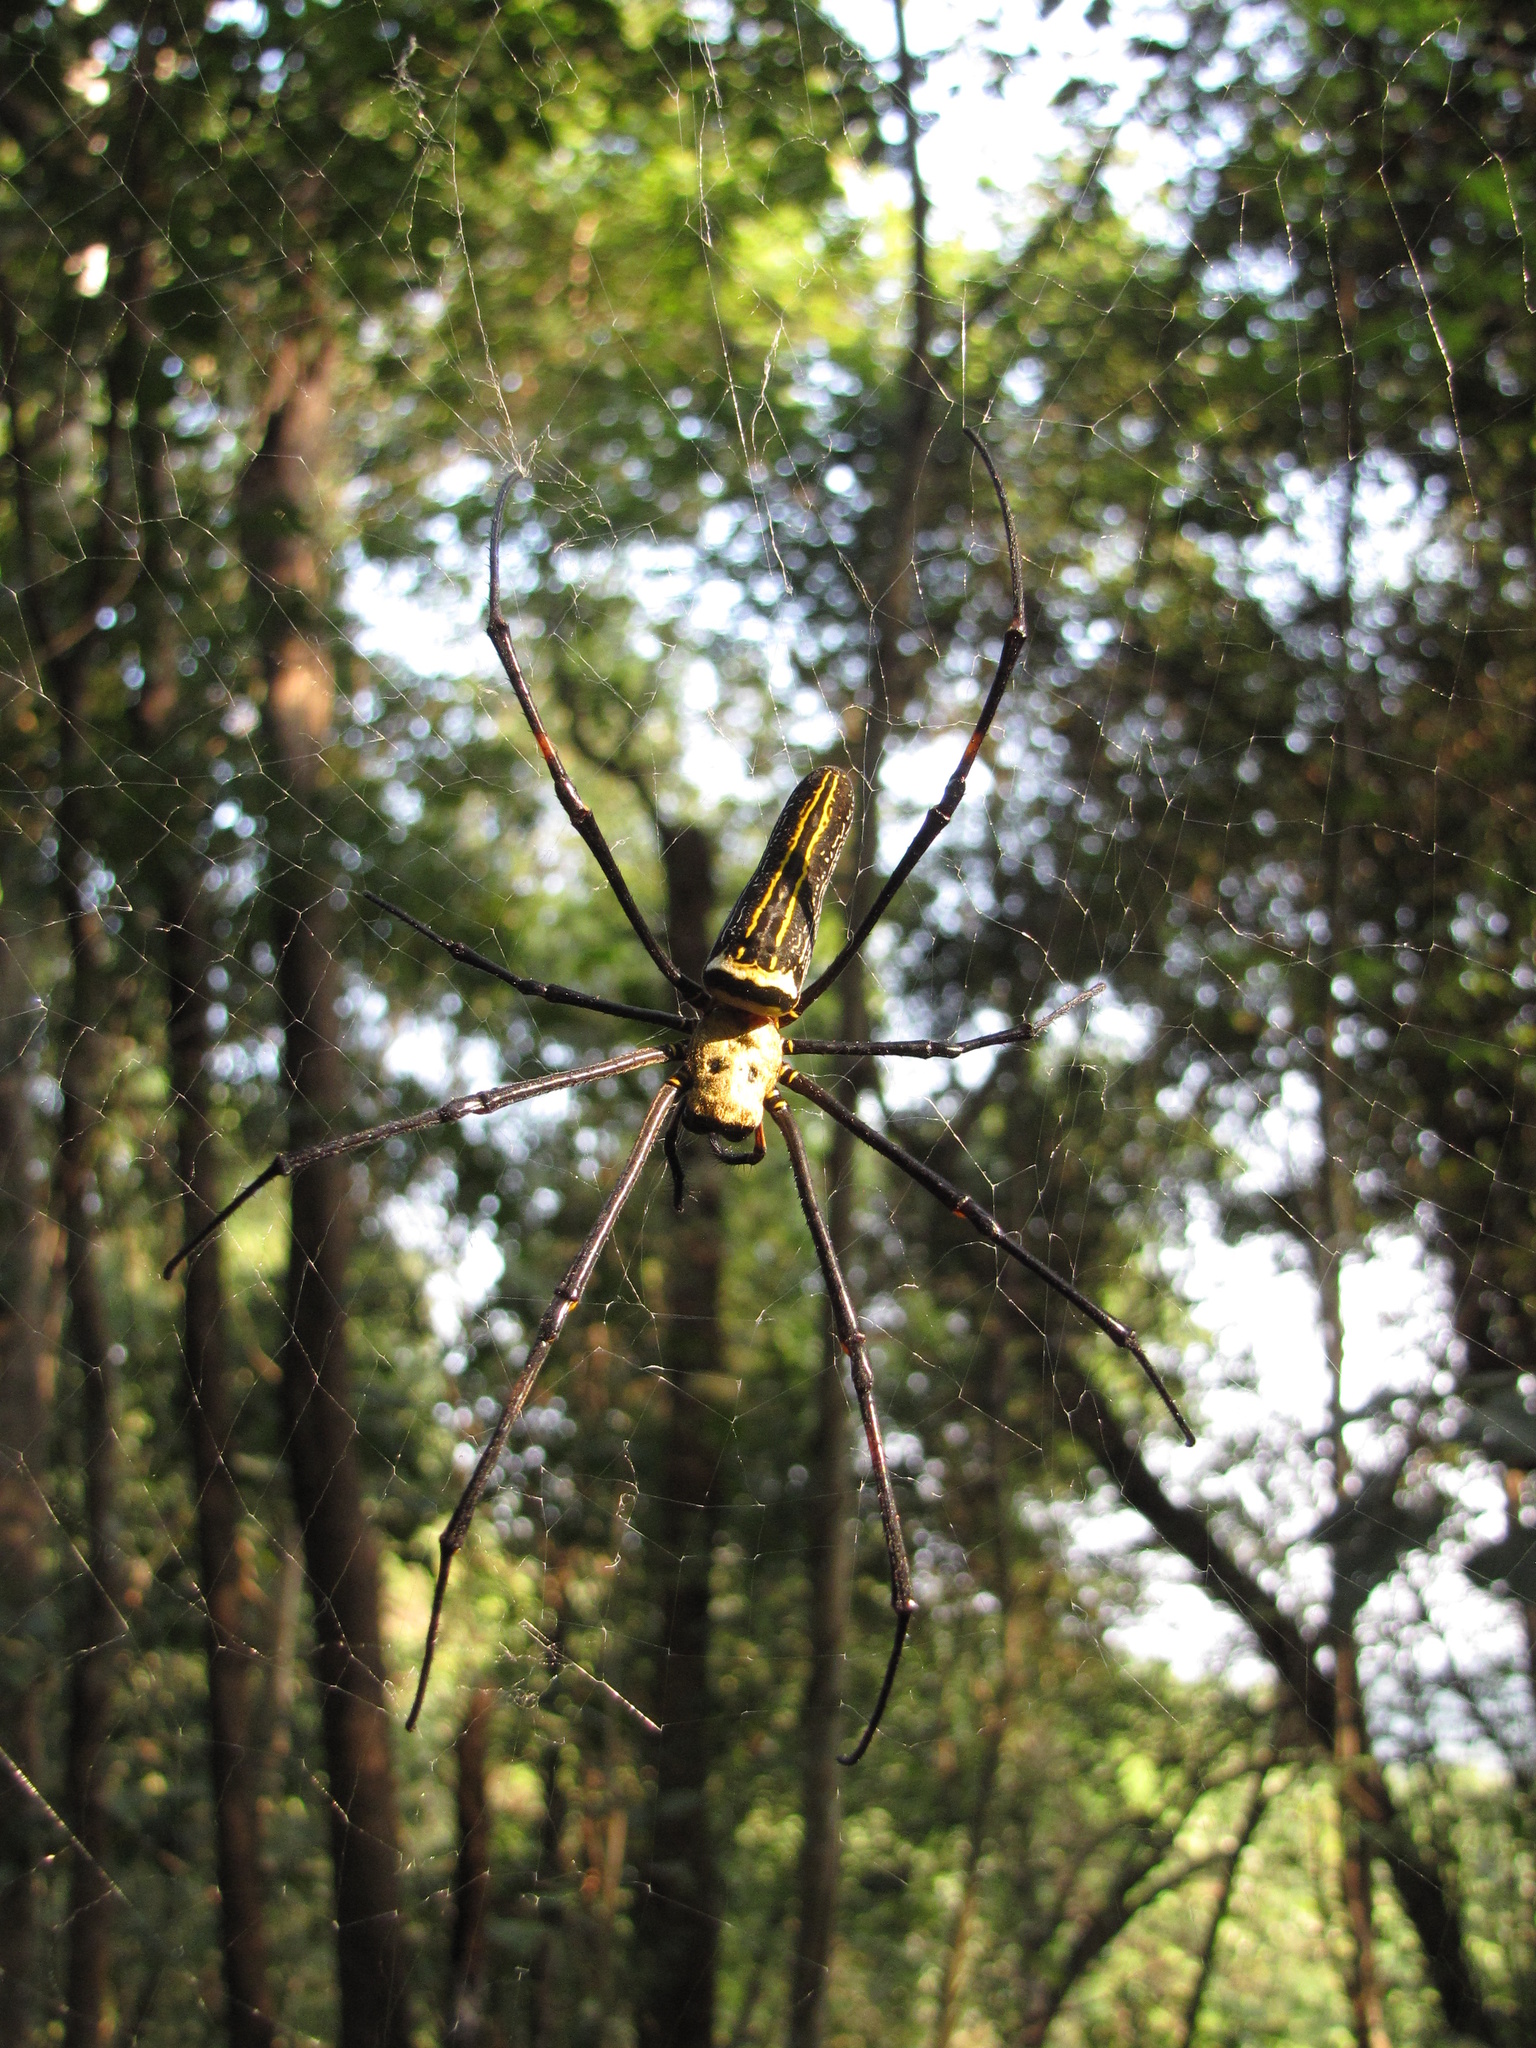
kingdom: Animalia
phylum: Arthropoda
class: Arachnida
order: Araneae
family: Araneidae
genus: Nephila
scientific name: Nephila pilipes
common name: Giant golden orb weaver
